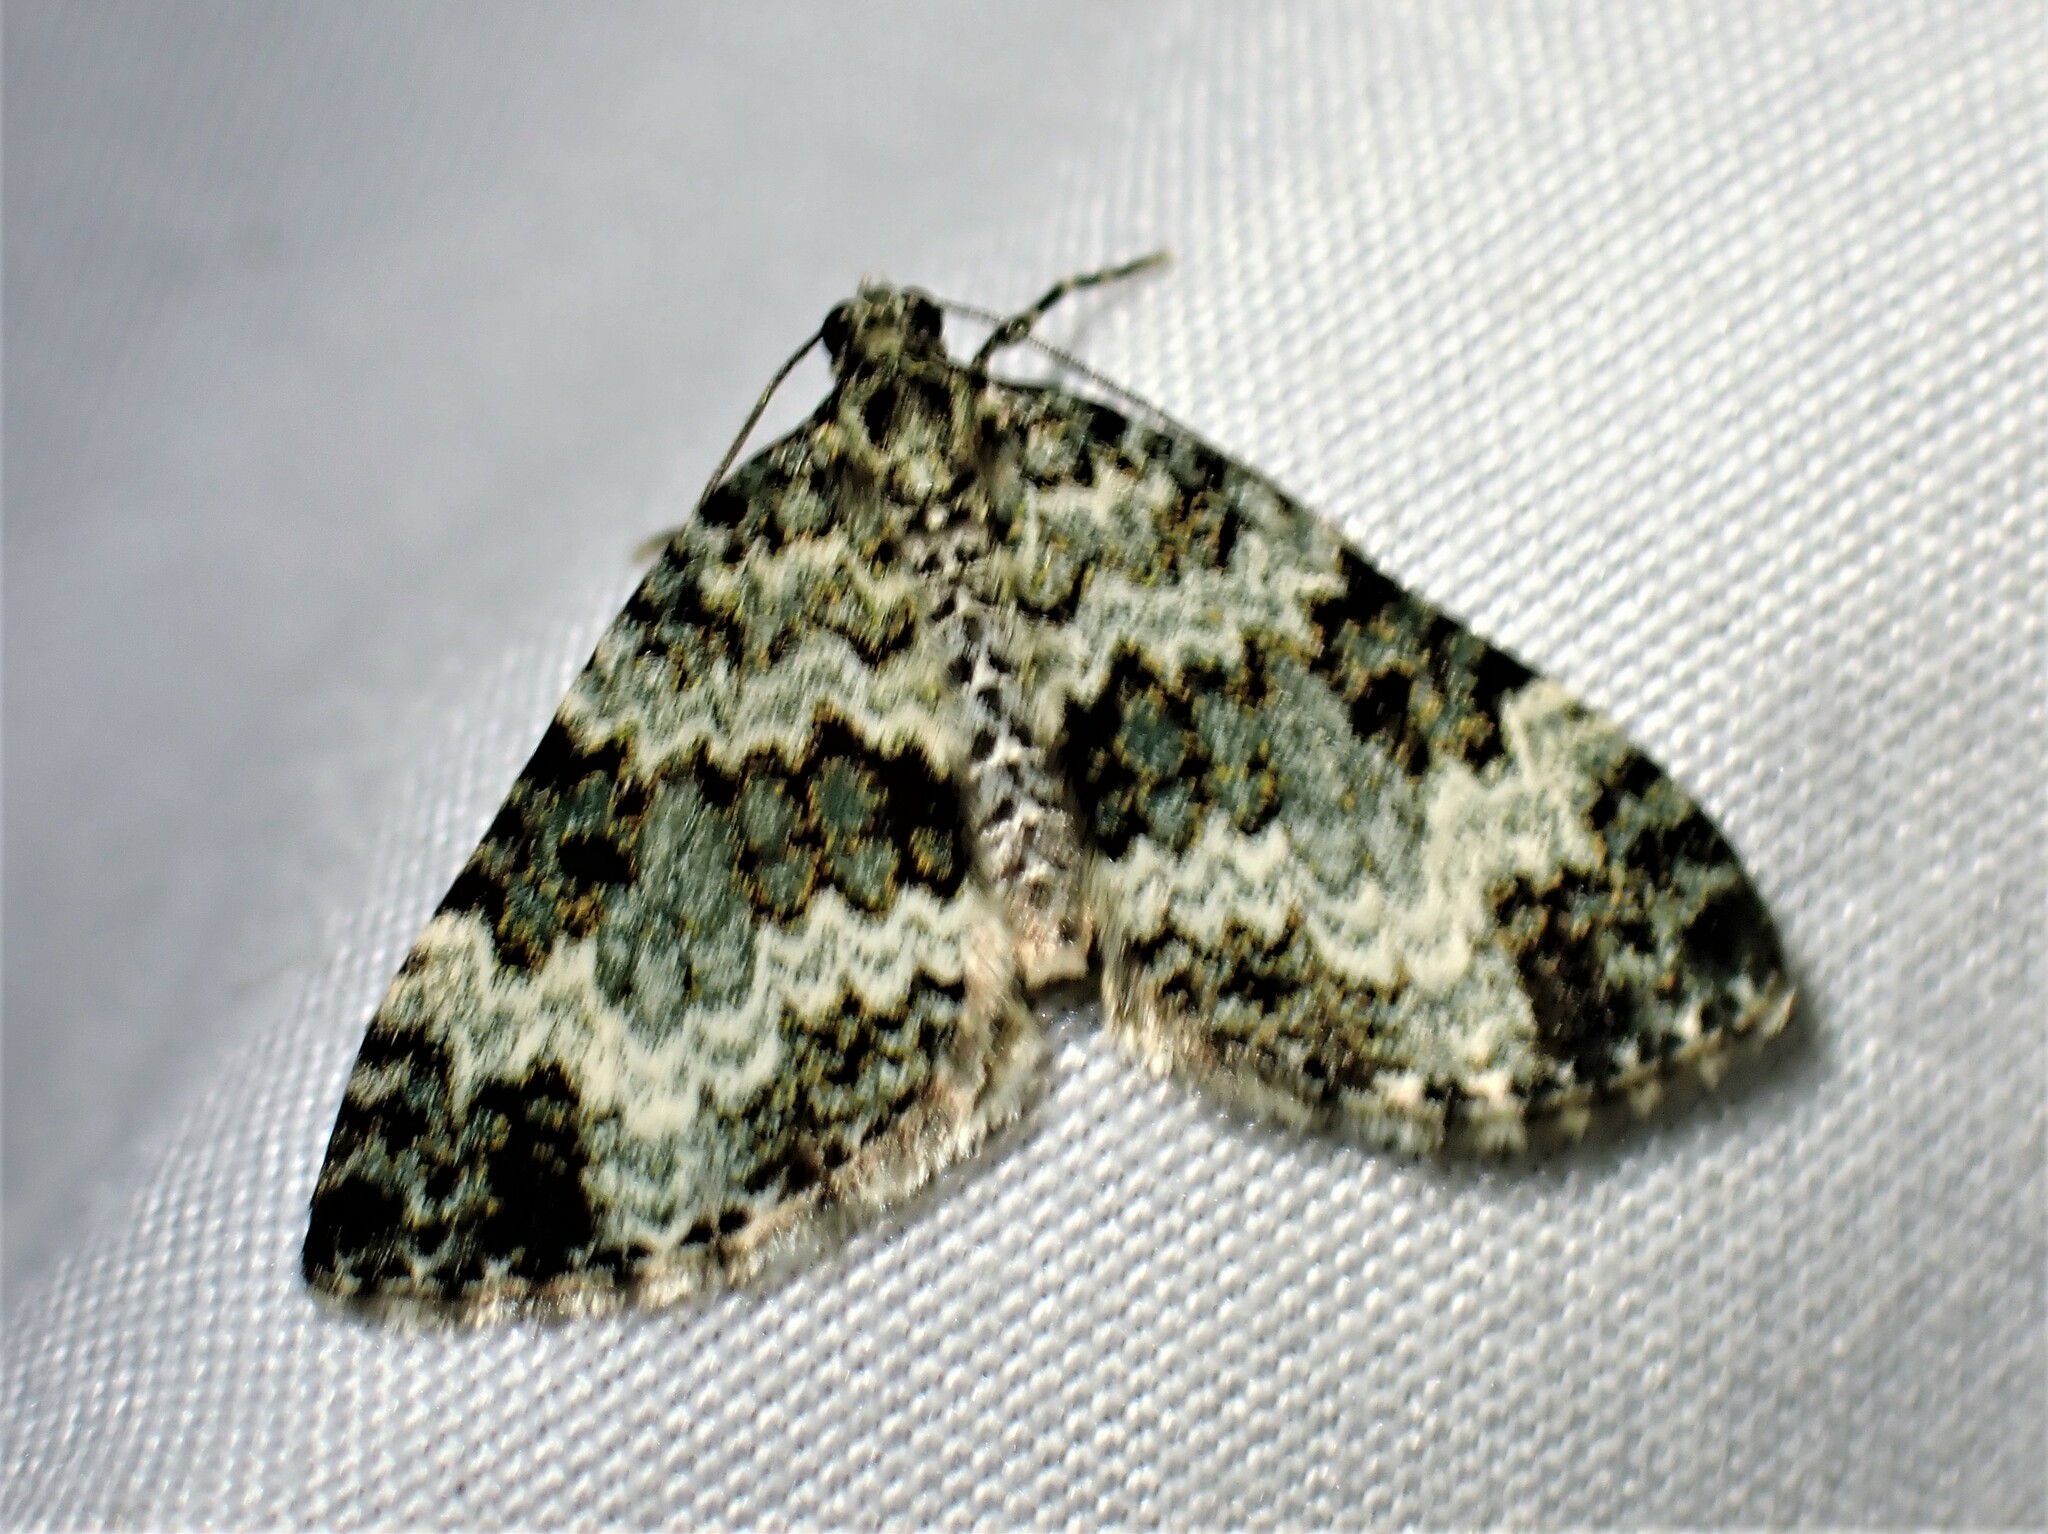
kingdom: Animalia
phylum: Arthropoda
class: Insecta
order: Lepidoptera
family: Geometridae
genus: Spargania
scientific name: Spargania magnoliata
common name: Double-banded carpet
